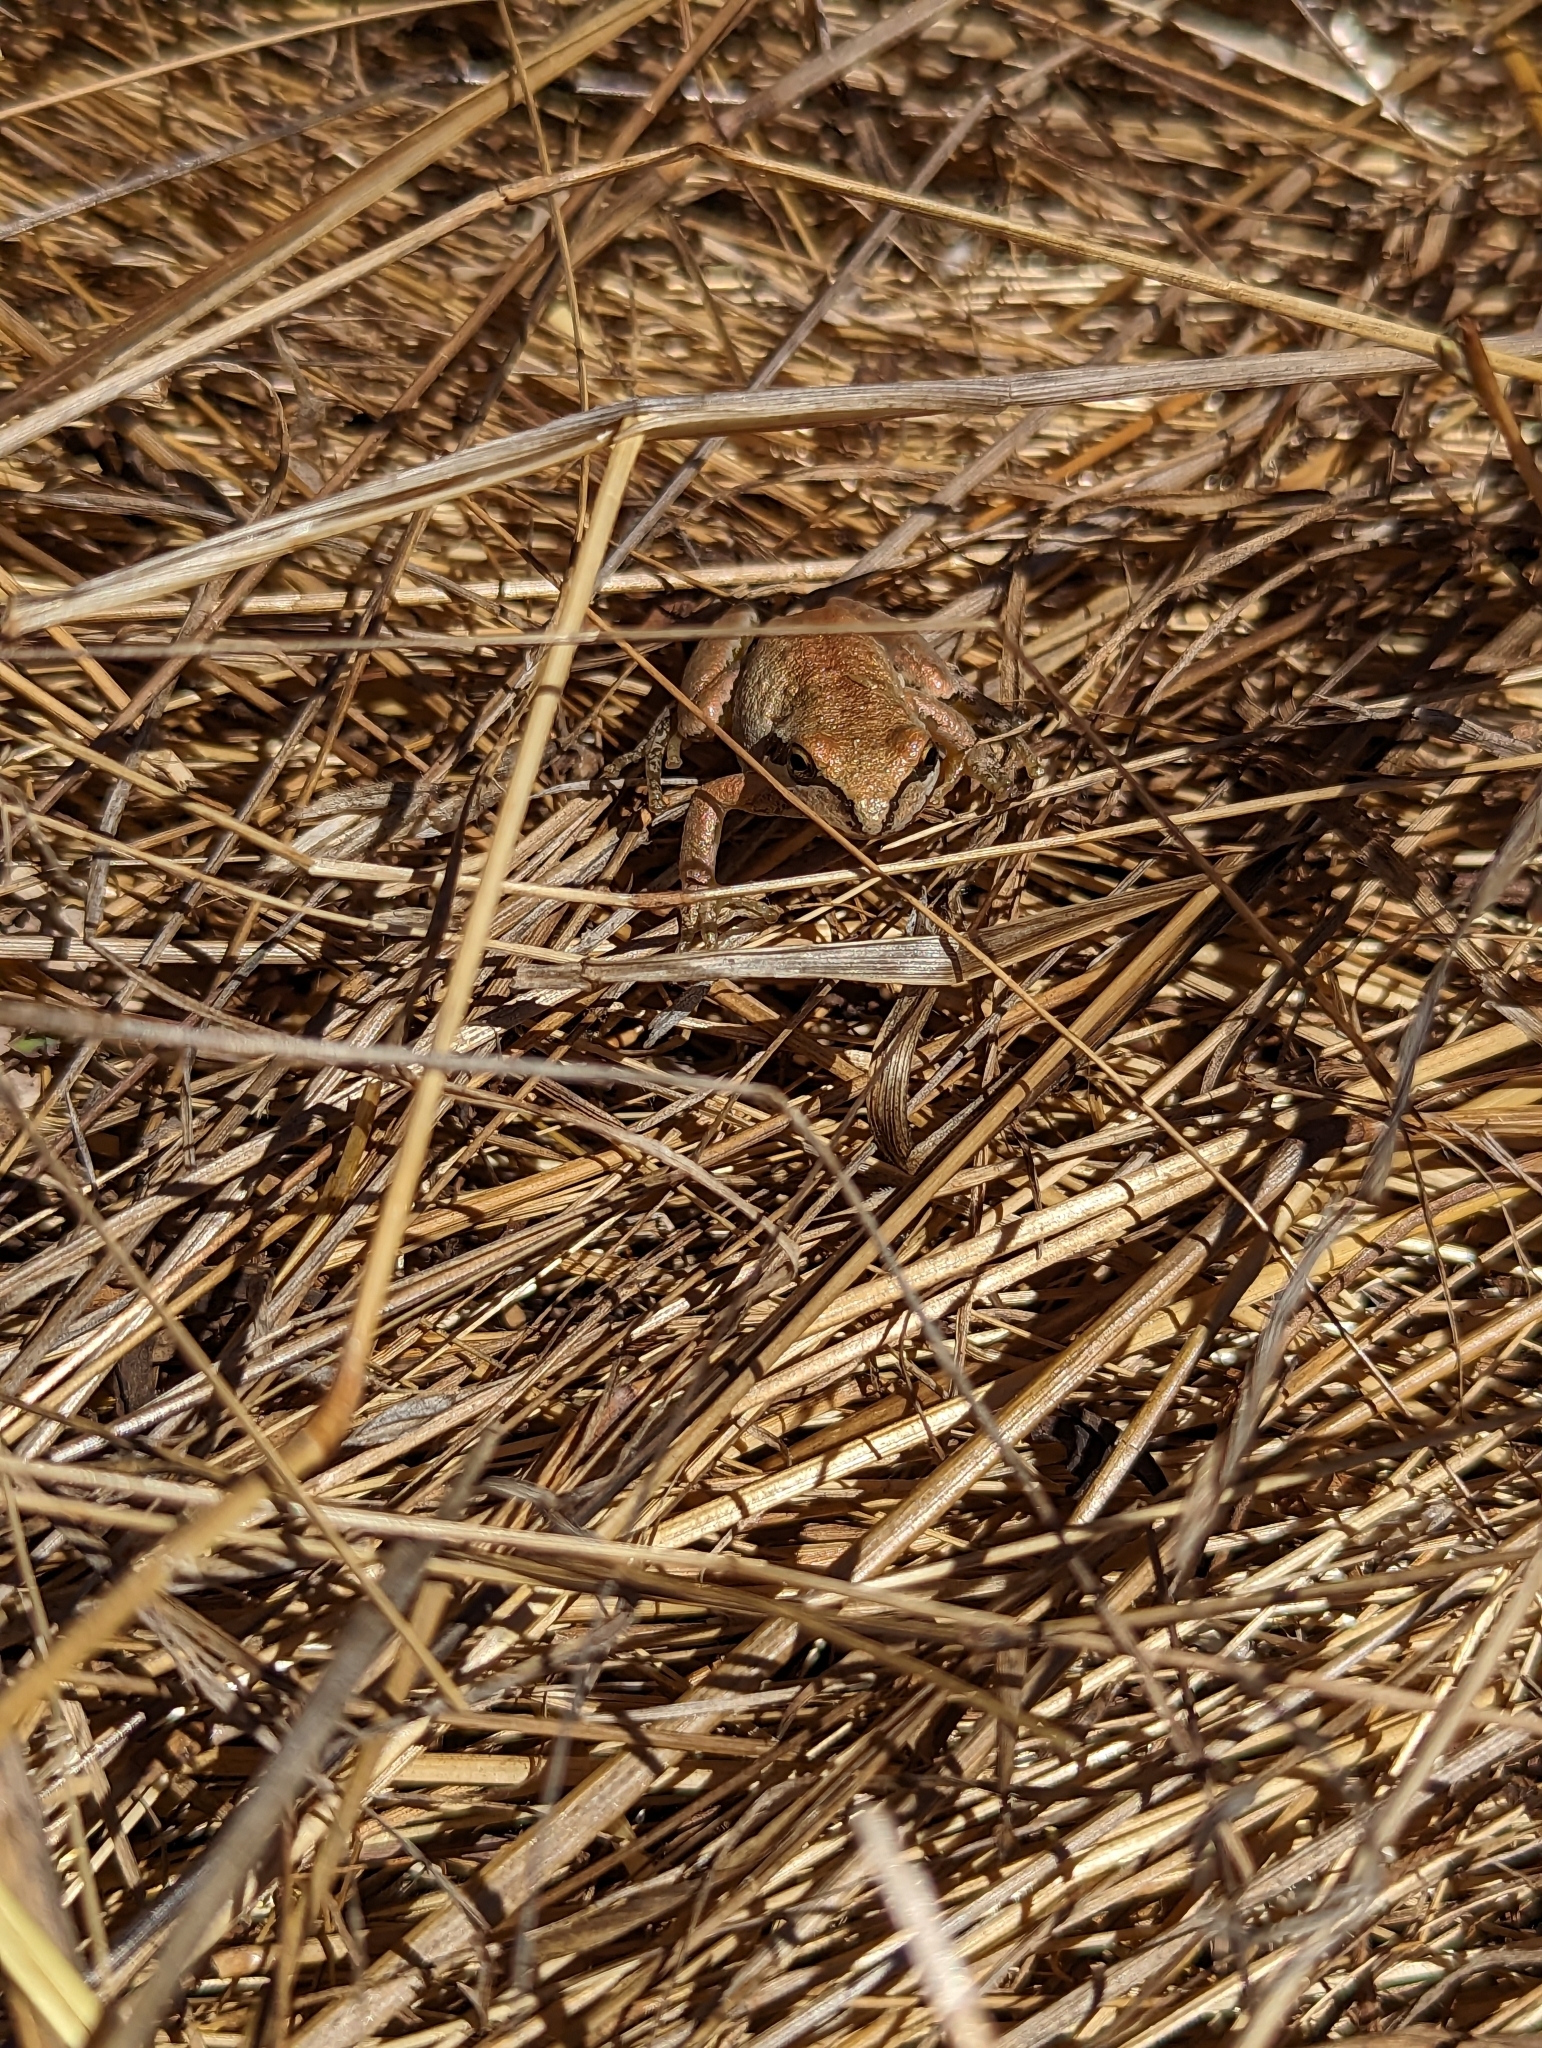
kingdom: Animalia
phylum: Chordata
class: Amphibia
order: Anura
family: Hylidae
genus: Pseudacris
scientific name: Pseudacris regilla
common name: Pacific chorus frog
